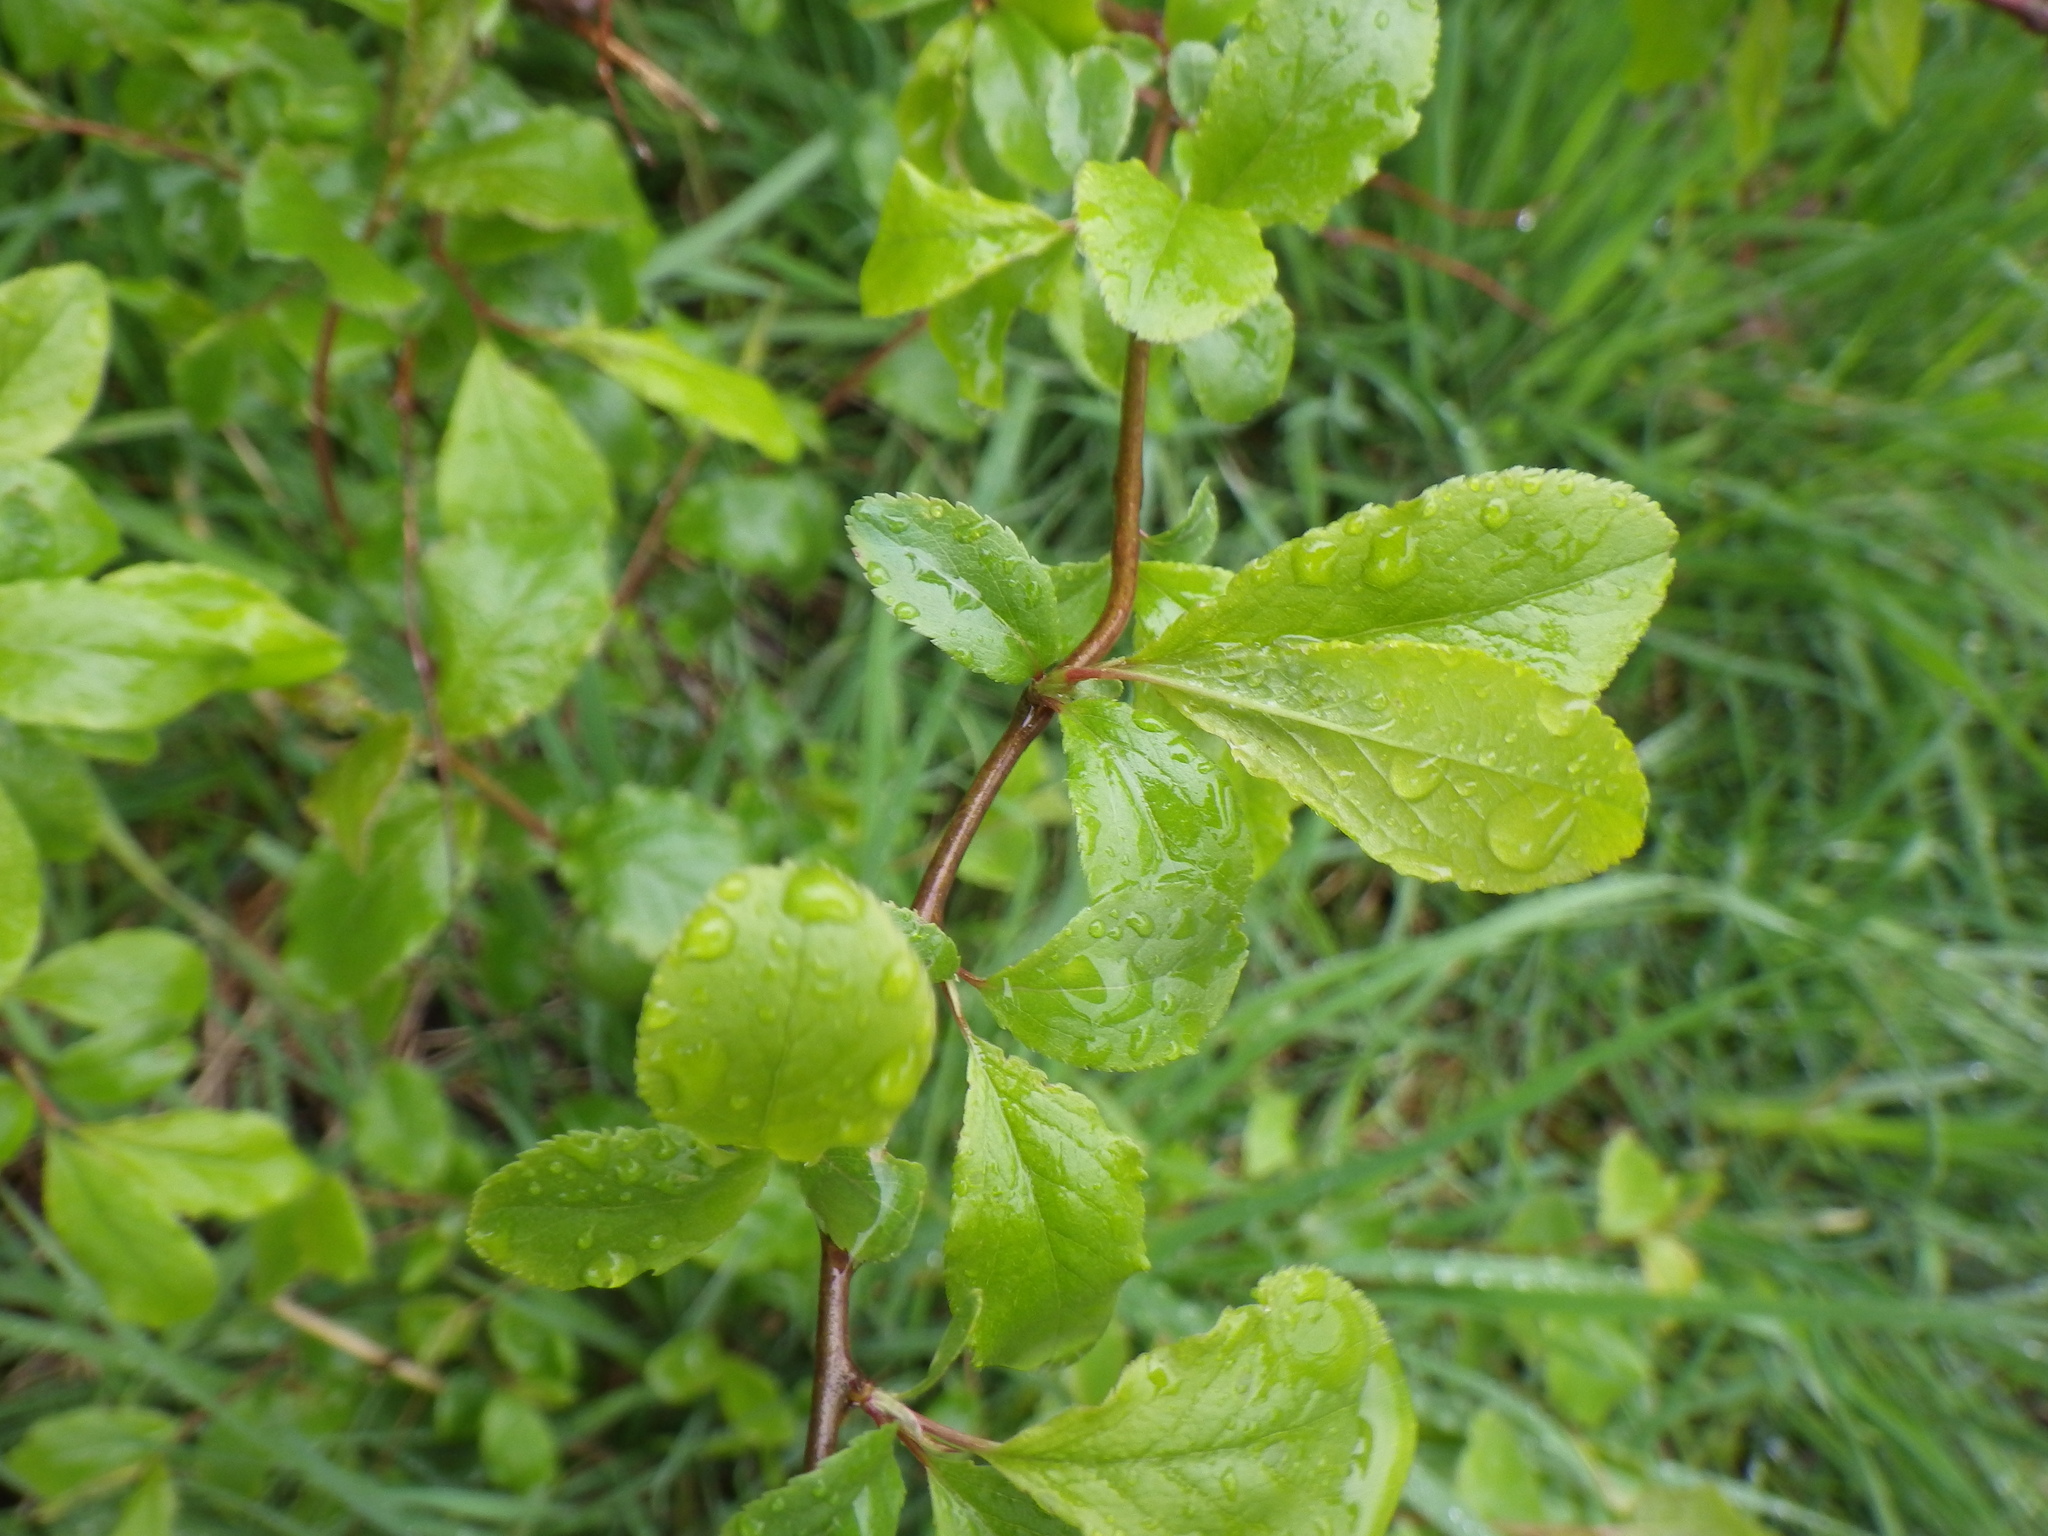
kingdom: Plantae
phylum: Tracheophyta
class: Magnoliopsida
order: Rosales
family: Rosaceae
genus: Prunus
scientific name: Prunus spinosa
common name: Blackthorn
